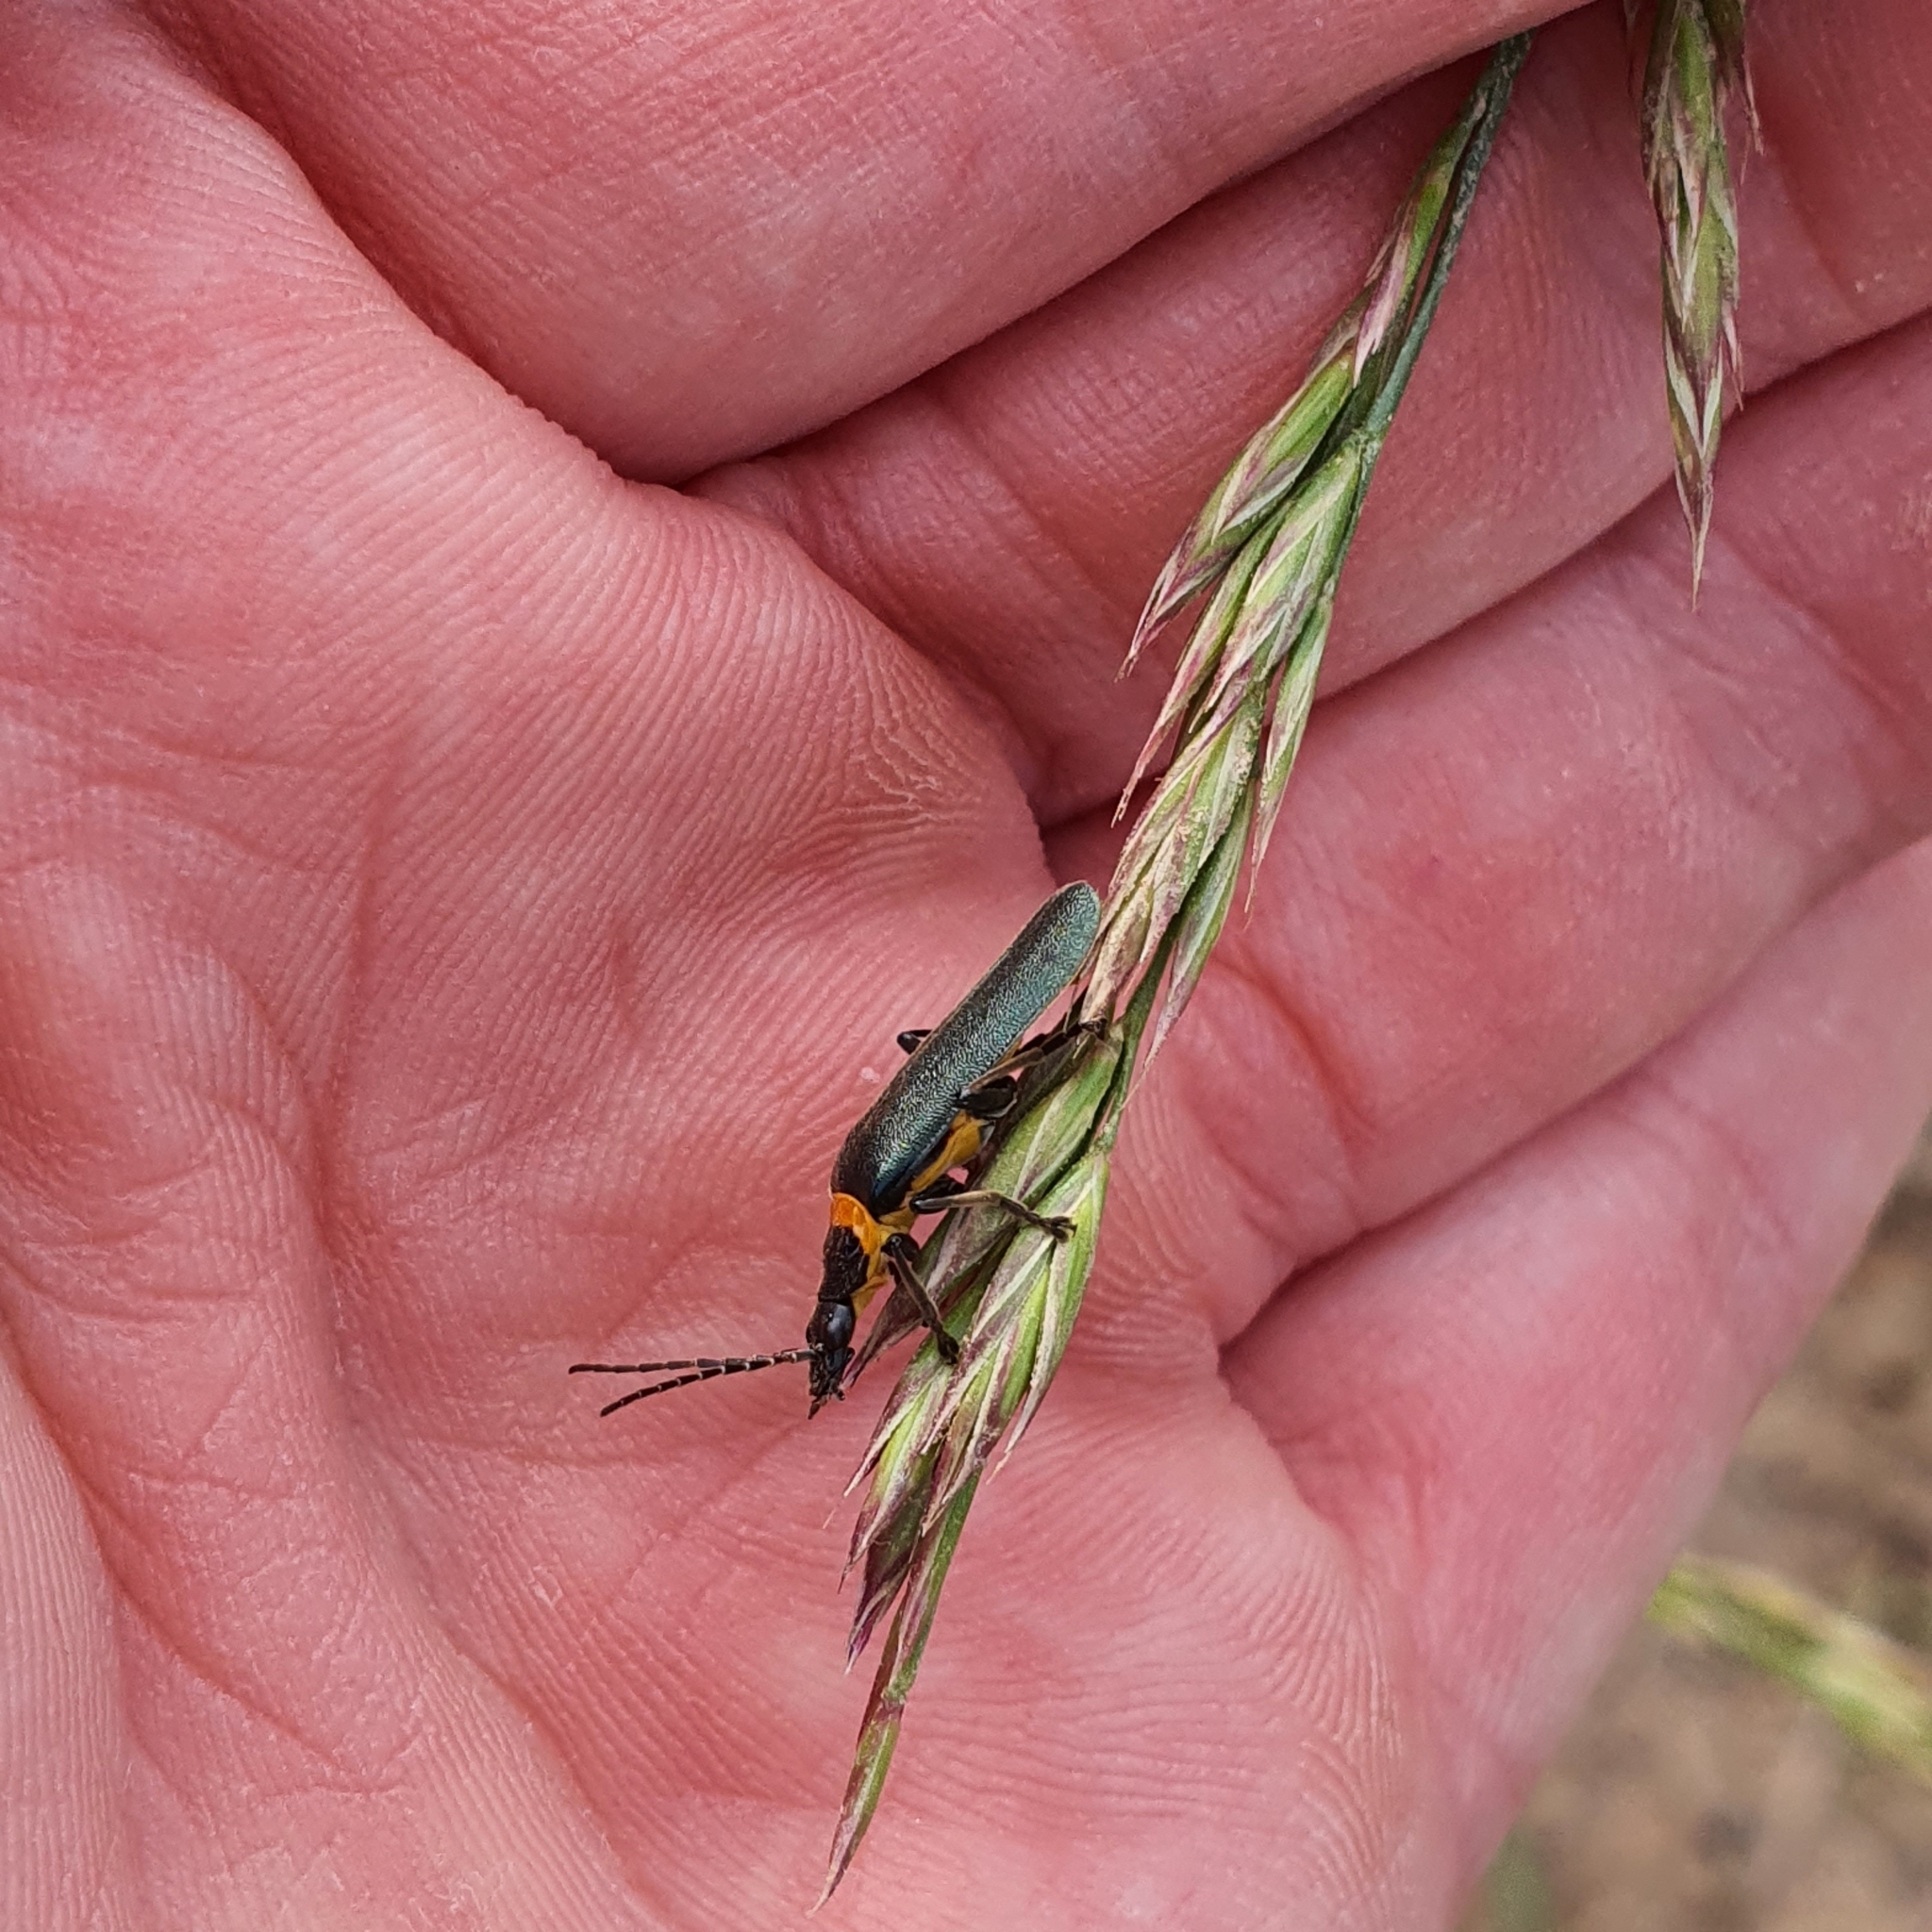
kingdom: Animalia
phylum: Arthropoda
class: Insecta
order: Coleoptera
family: Cantharidae
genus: Chauliognathus
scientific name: Chauliognathus
